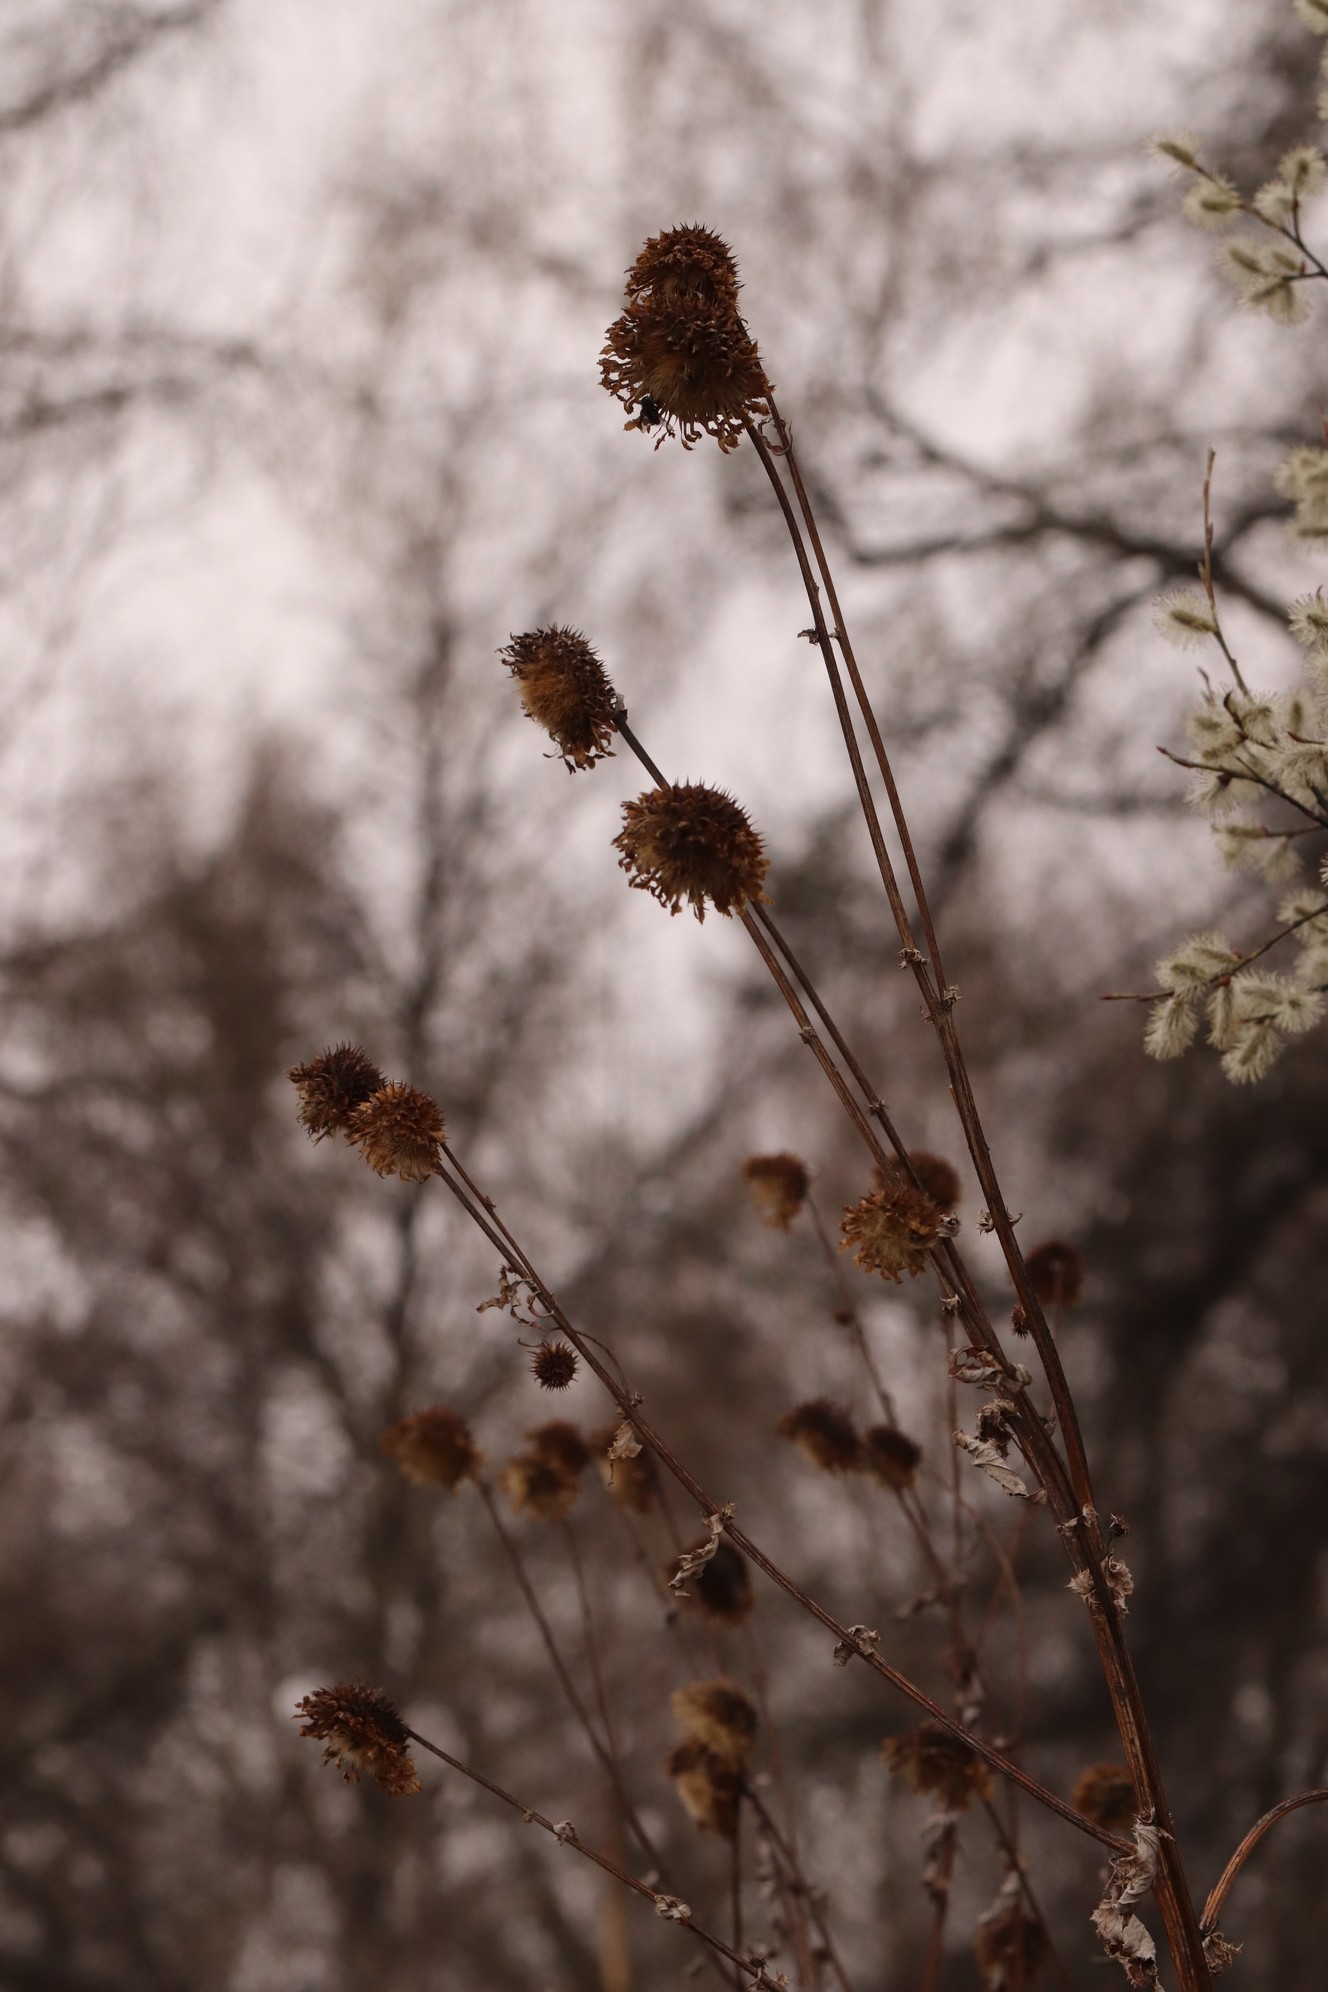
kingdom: Plantae
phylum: Tracheophyta
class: Magnoliopsida
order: Asterales
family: Asteraceae
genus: Alfredia
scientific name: Alfredia cernua
